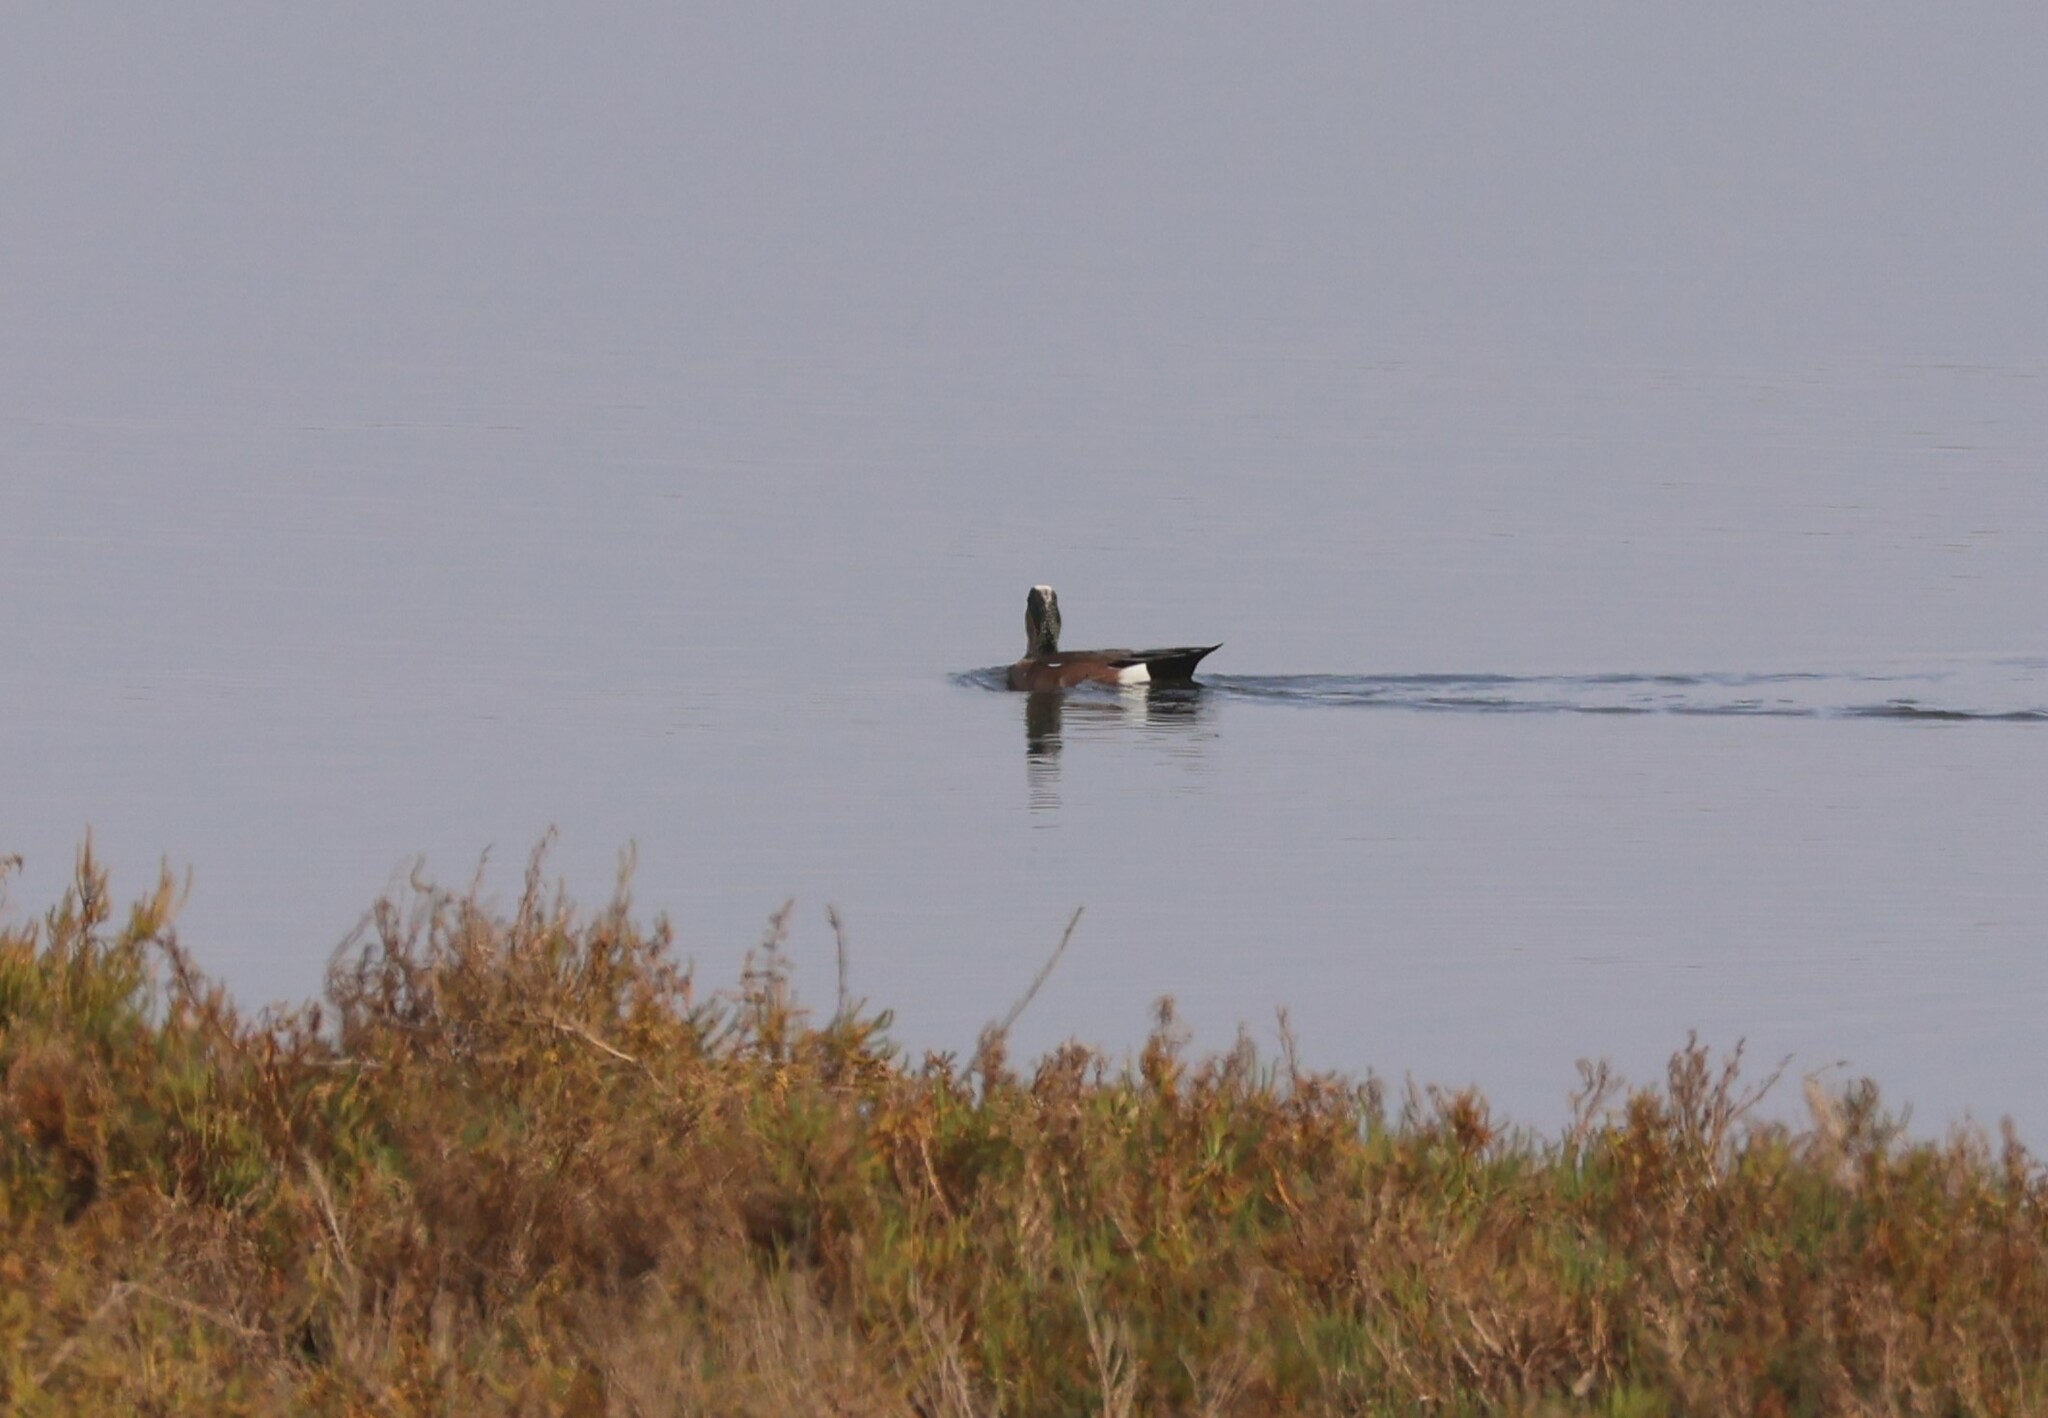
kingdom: Animalia
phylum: Chordata
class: Aves
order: Anseriformes
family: Anatidae
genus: Mareca
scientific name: Mareca americana
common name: American wigeon
